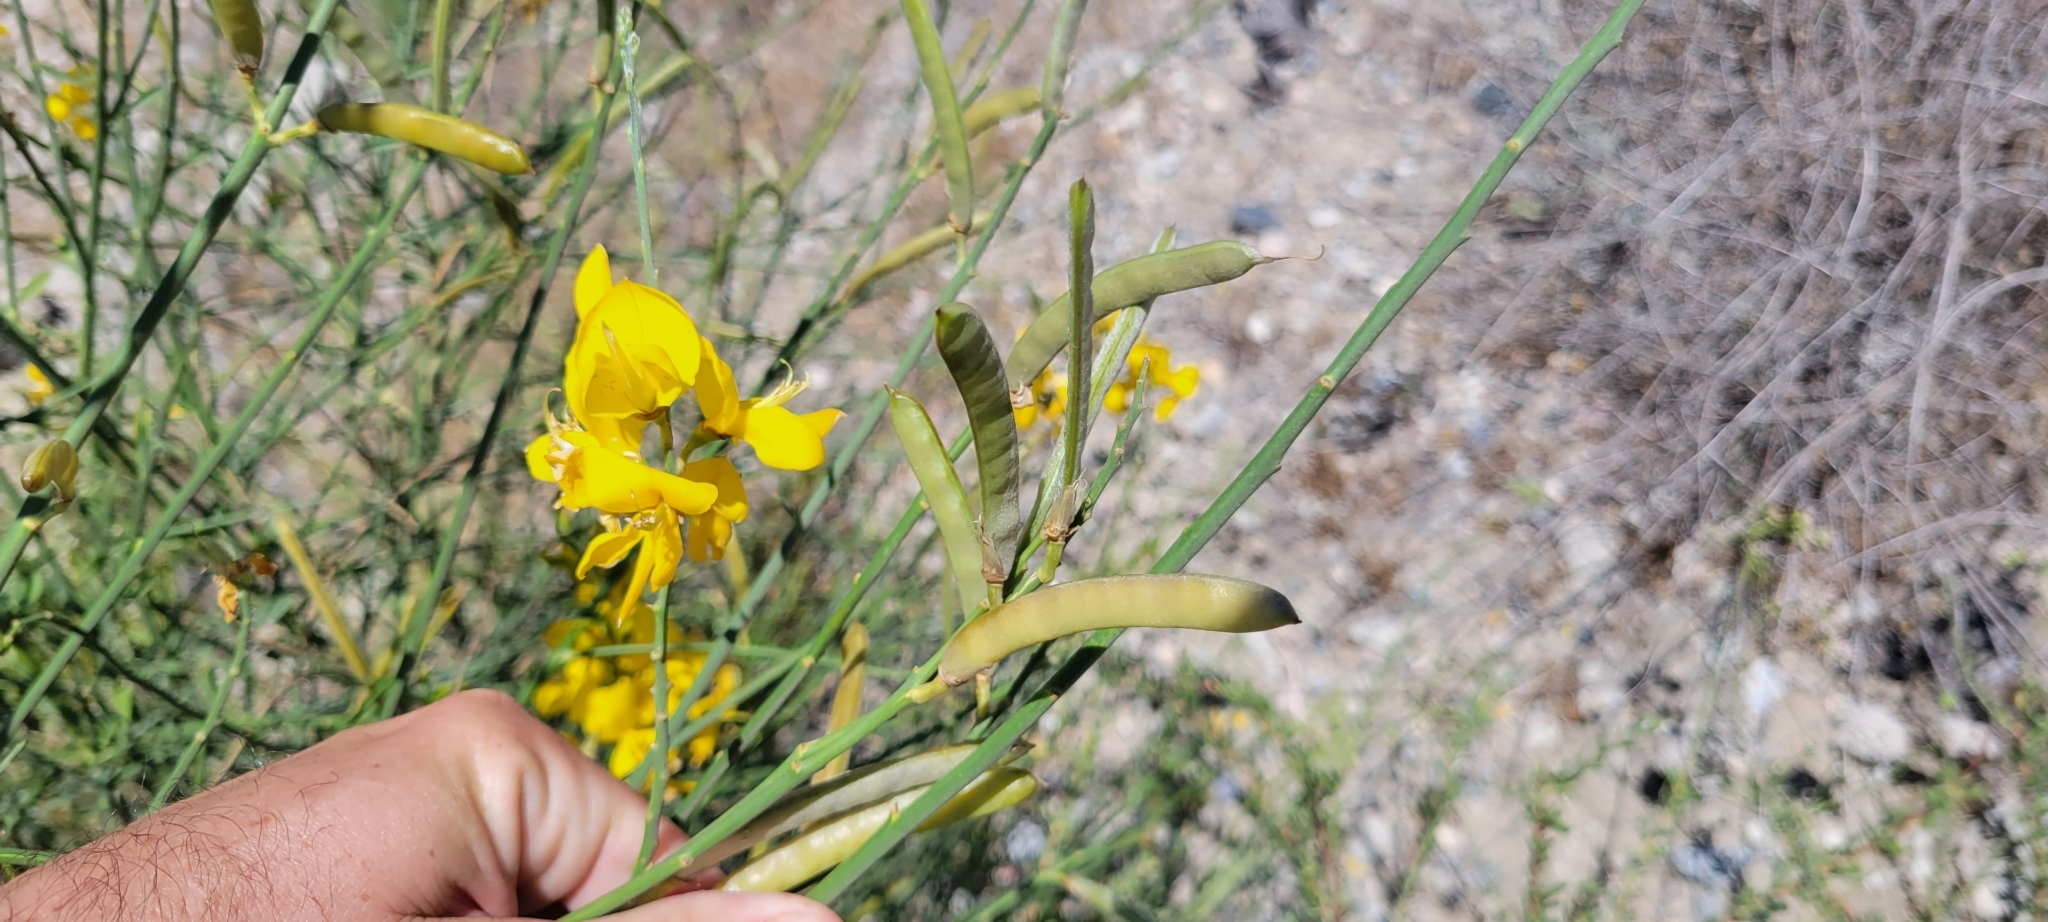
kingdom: Plantae
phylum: Tracheophyta
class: Magnoliopsida
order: Fabales
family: Fabaceae
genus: Spartium
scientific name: Spartium junceum
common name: Spanish broom
